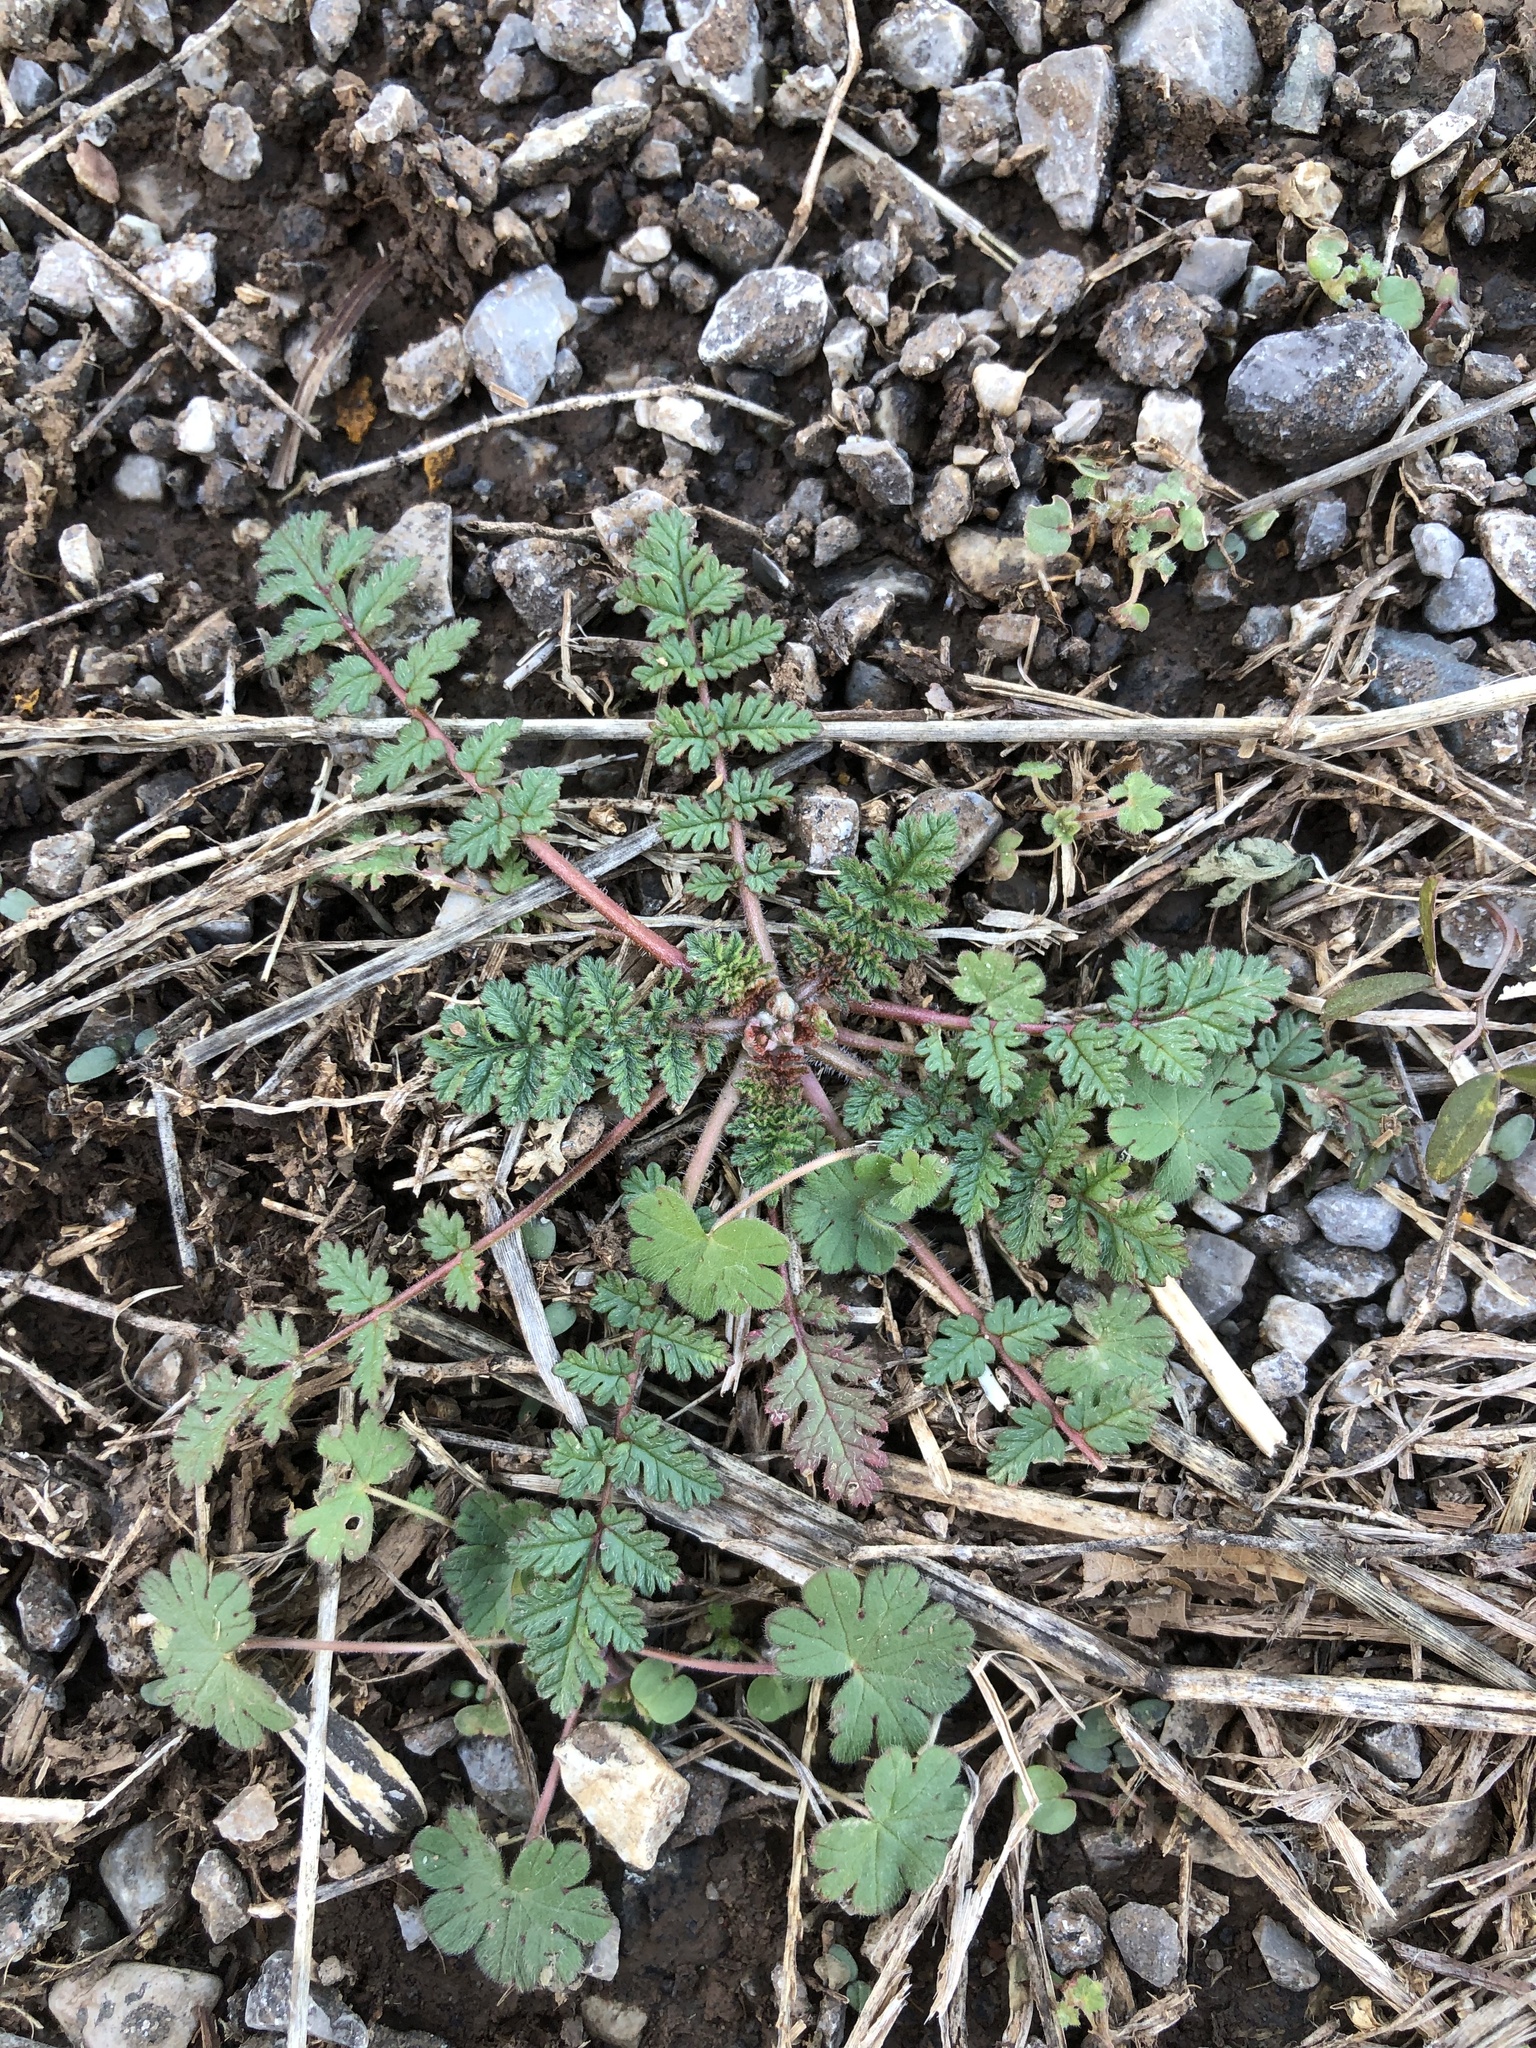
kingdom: Plantae
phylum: Tracheophyta
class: Magnoliopsida
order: Geraniales
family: Geraniaceae
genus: Erodium
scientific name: Erodium cicutarium
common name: Common stork's-bill
